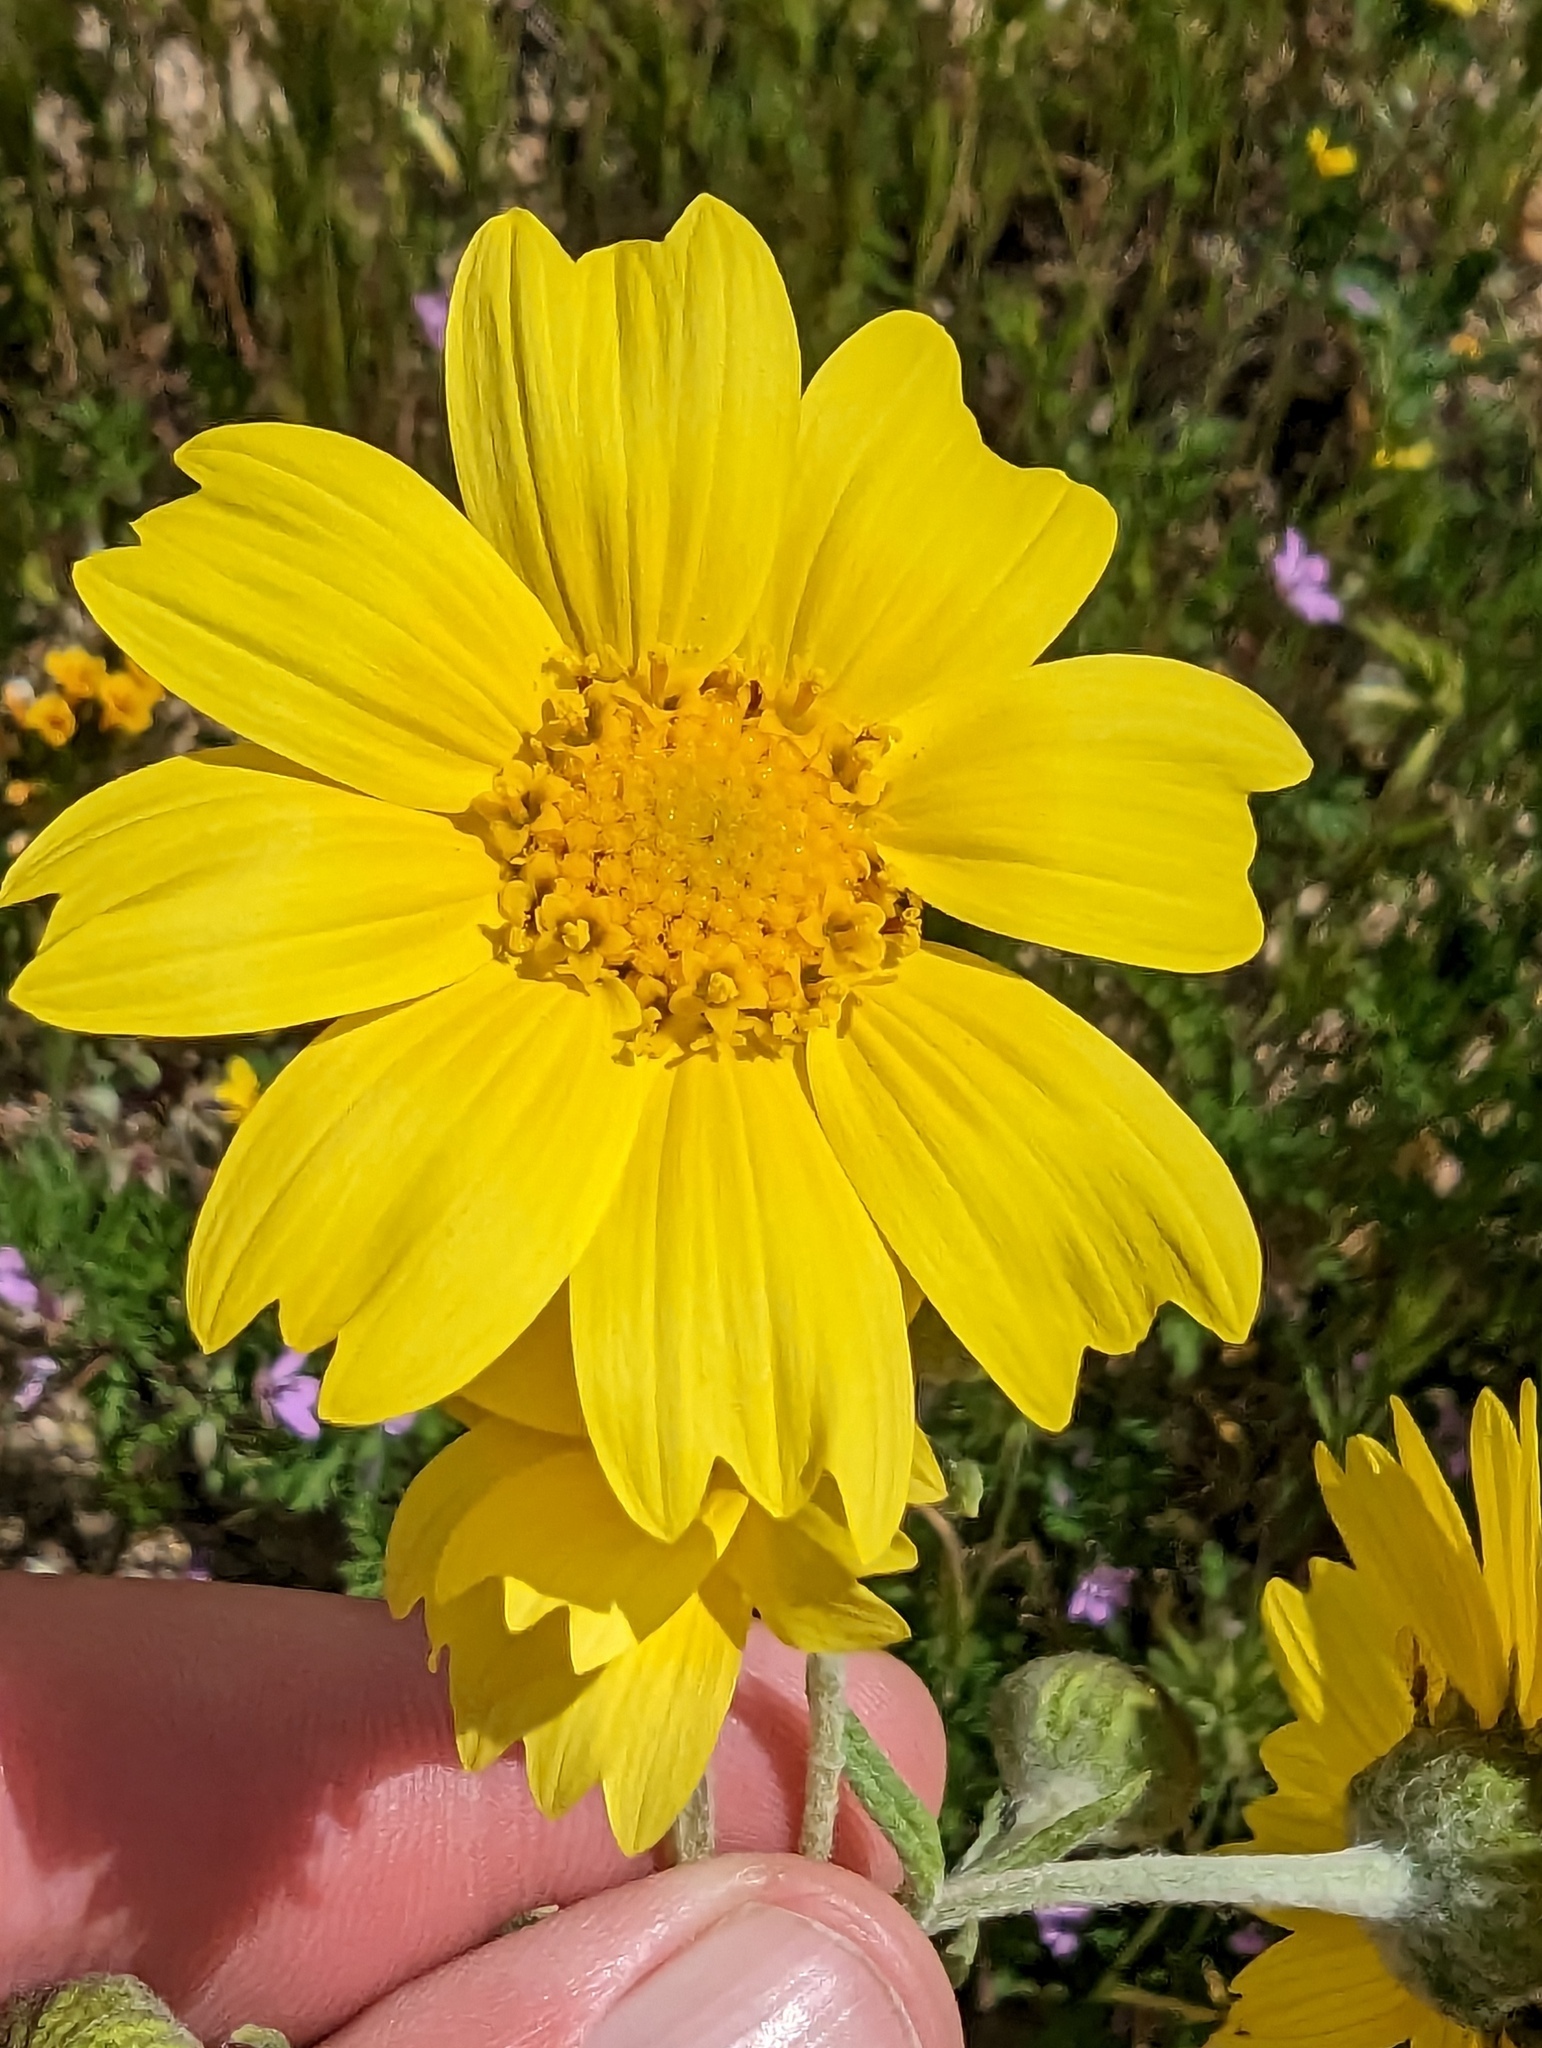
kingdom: Plantae
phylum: Tracheophyta
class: Magnoliopsida
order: Asterales
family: Asteraceae
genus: Monolopia
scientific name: Monolopia lanceolata
